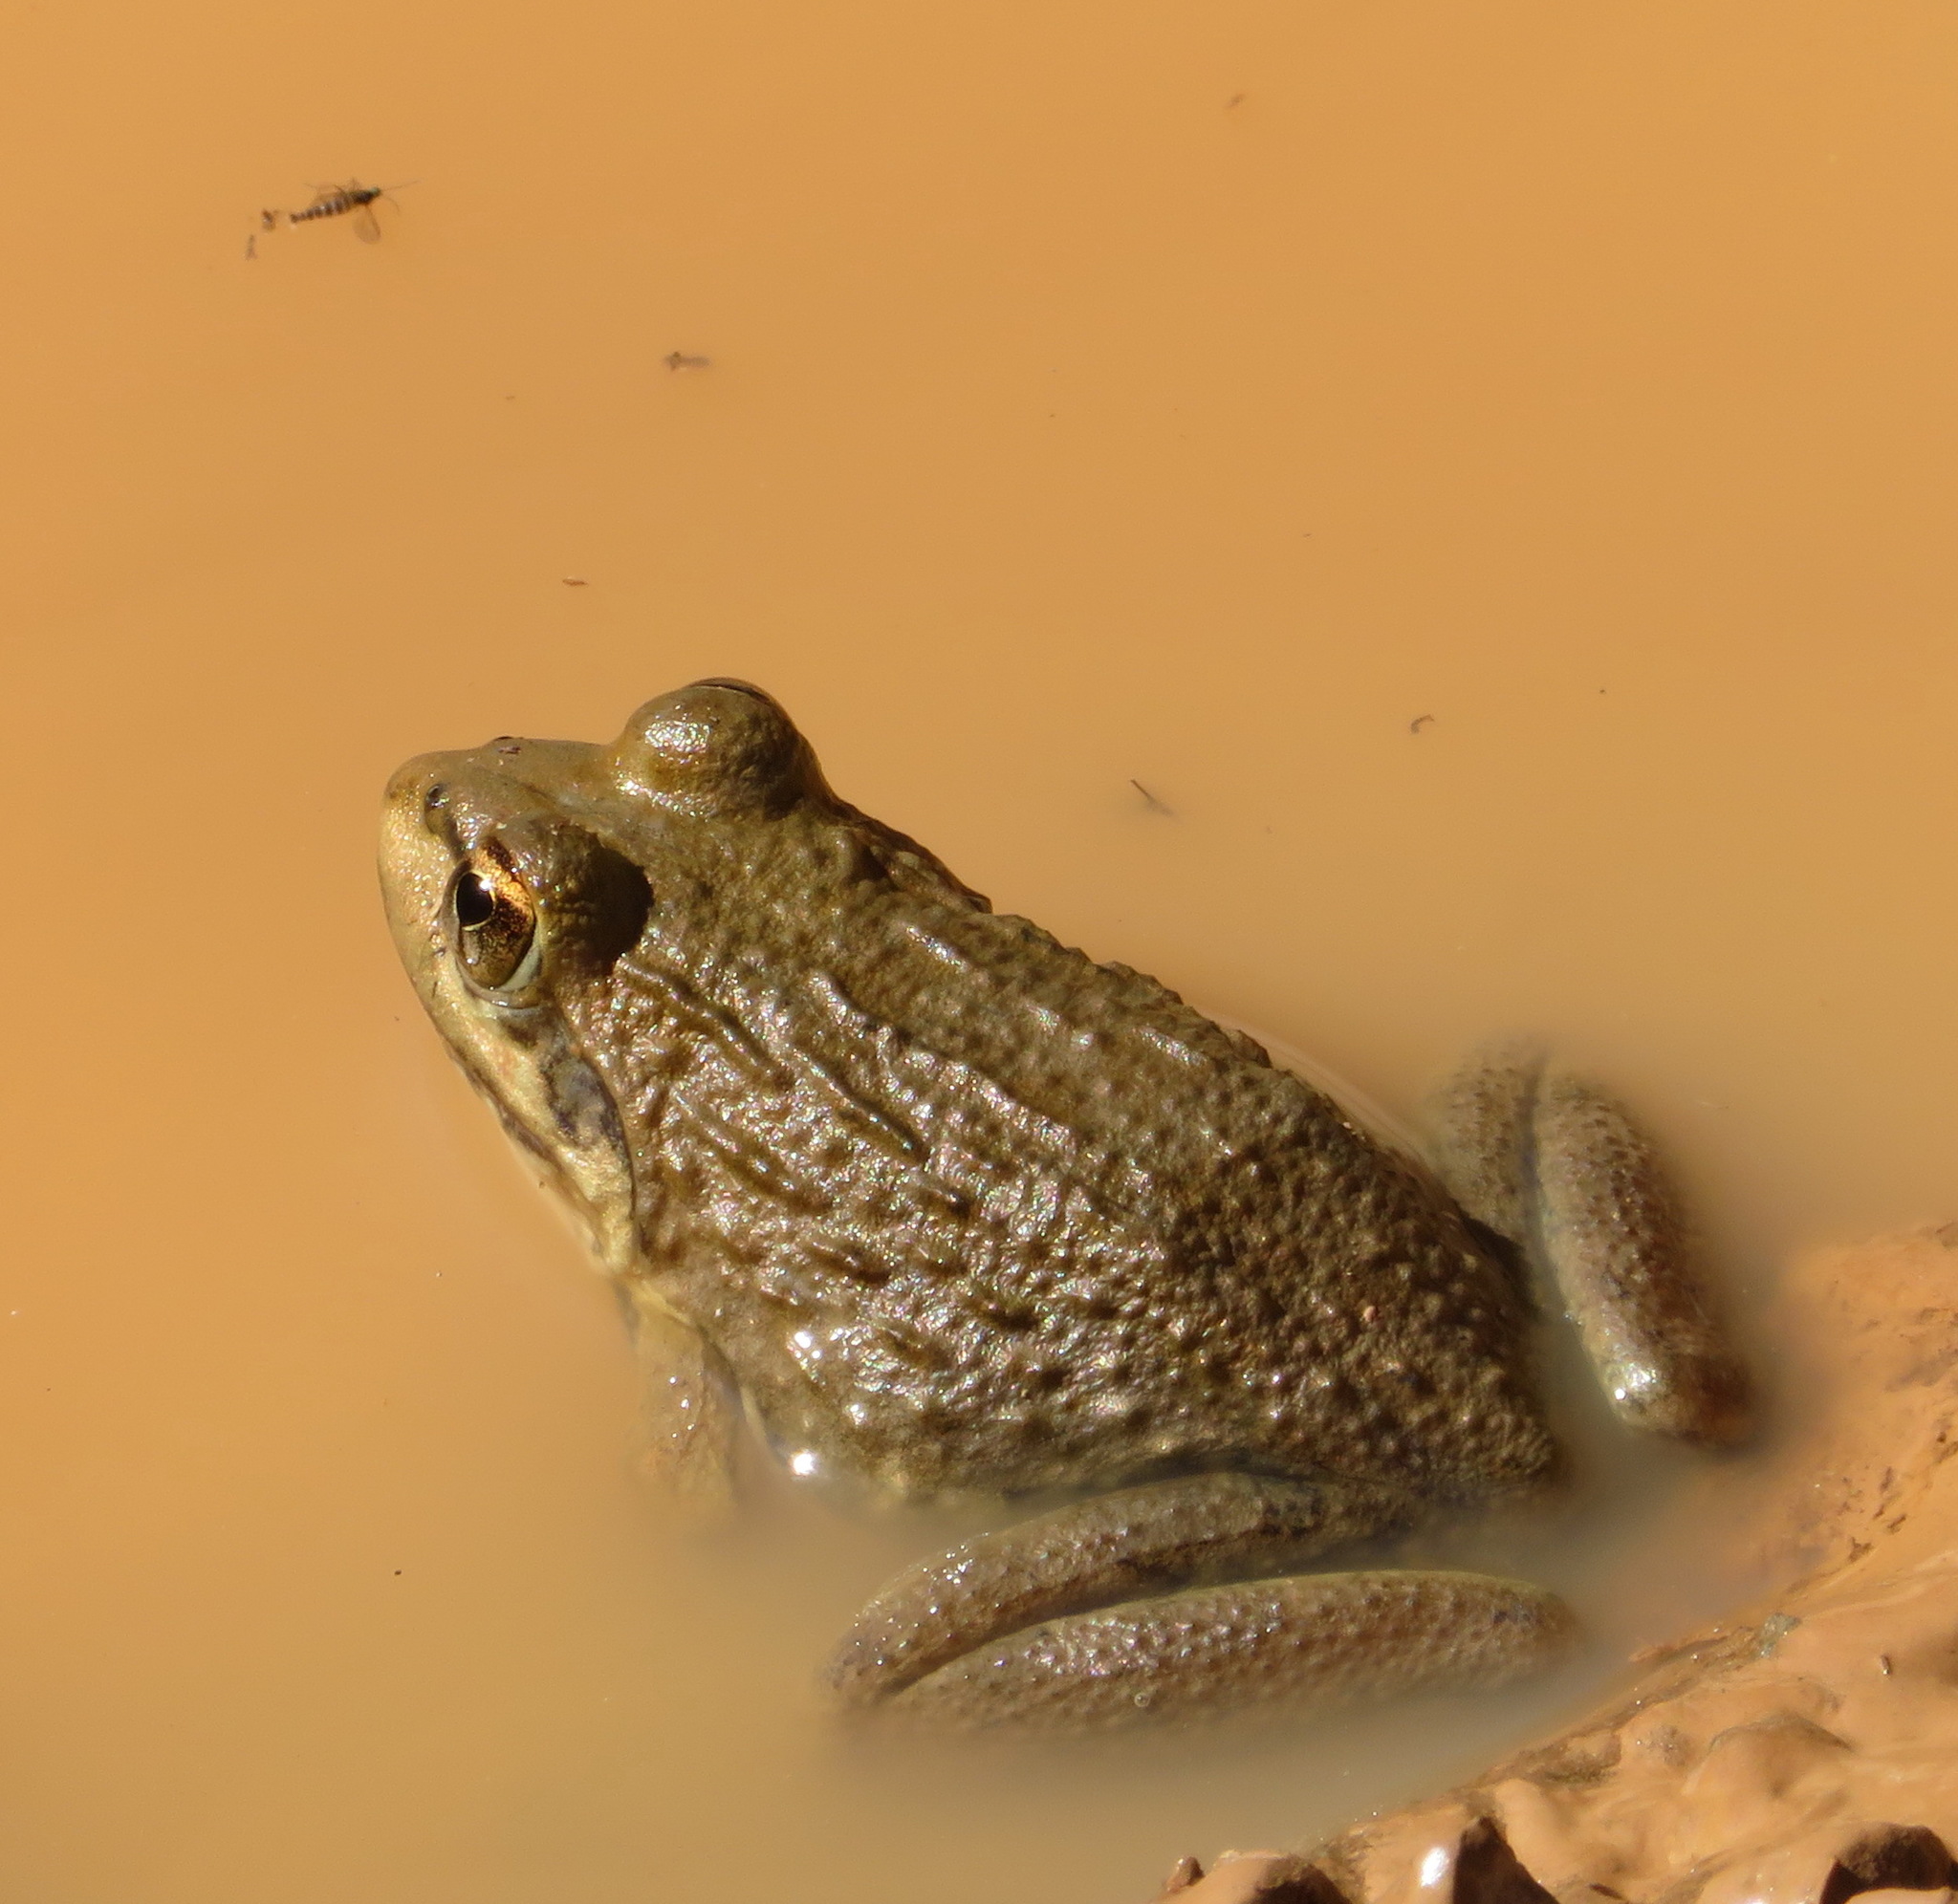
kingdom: Animalia
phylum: Chordata
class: Amphibia
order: Anura
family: Pyxicephalidae
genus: Amietia
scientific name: Amietia fuscigula
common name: Cape rana
